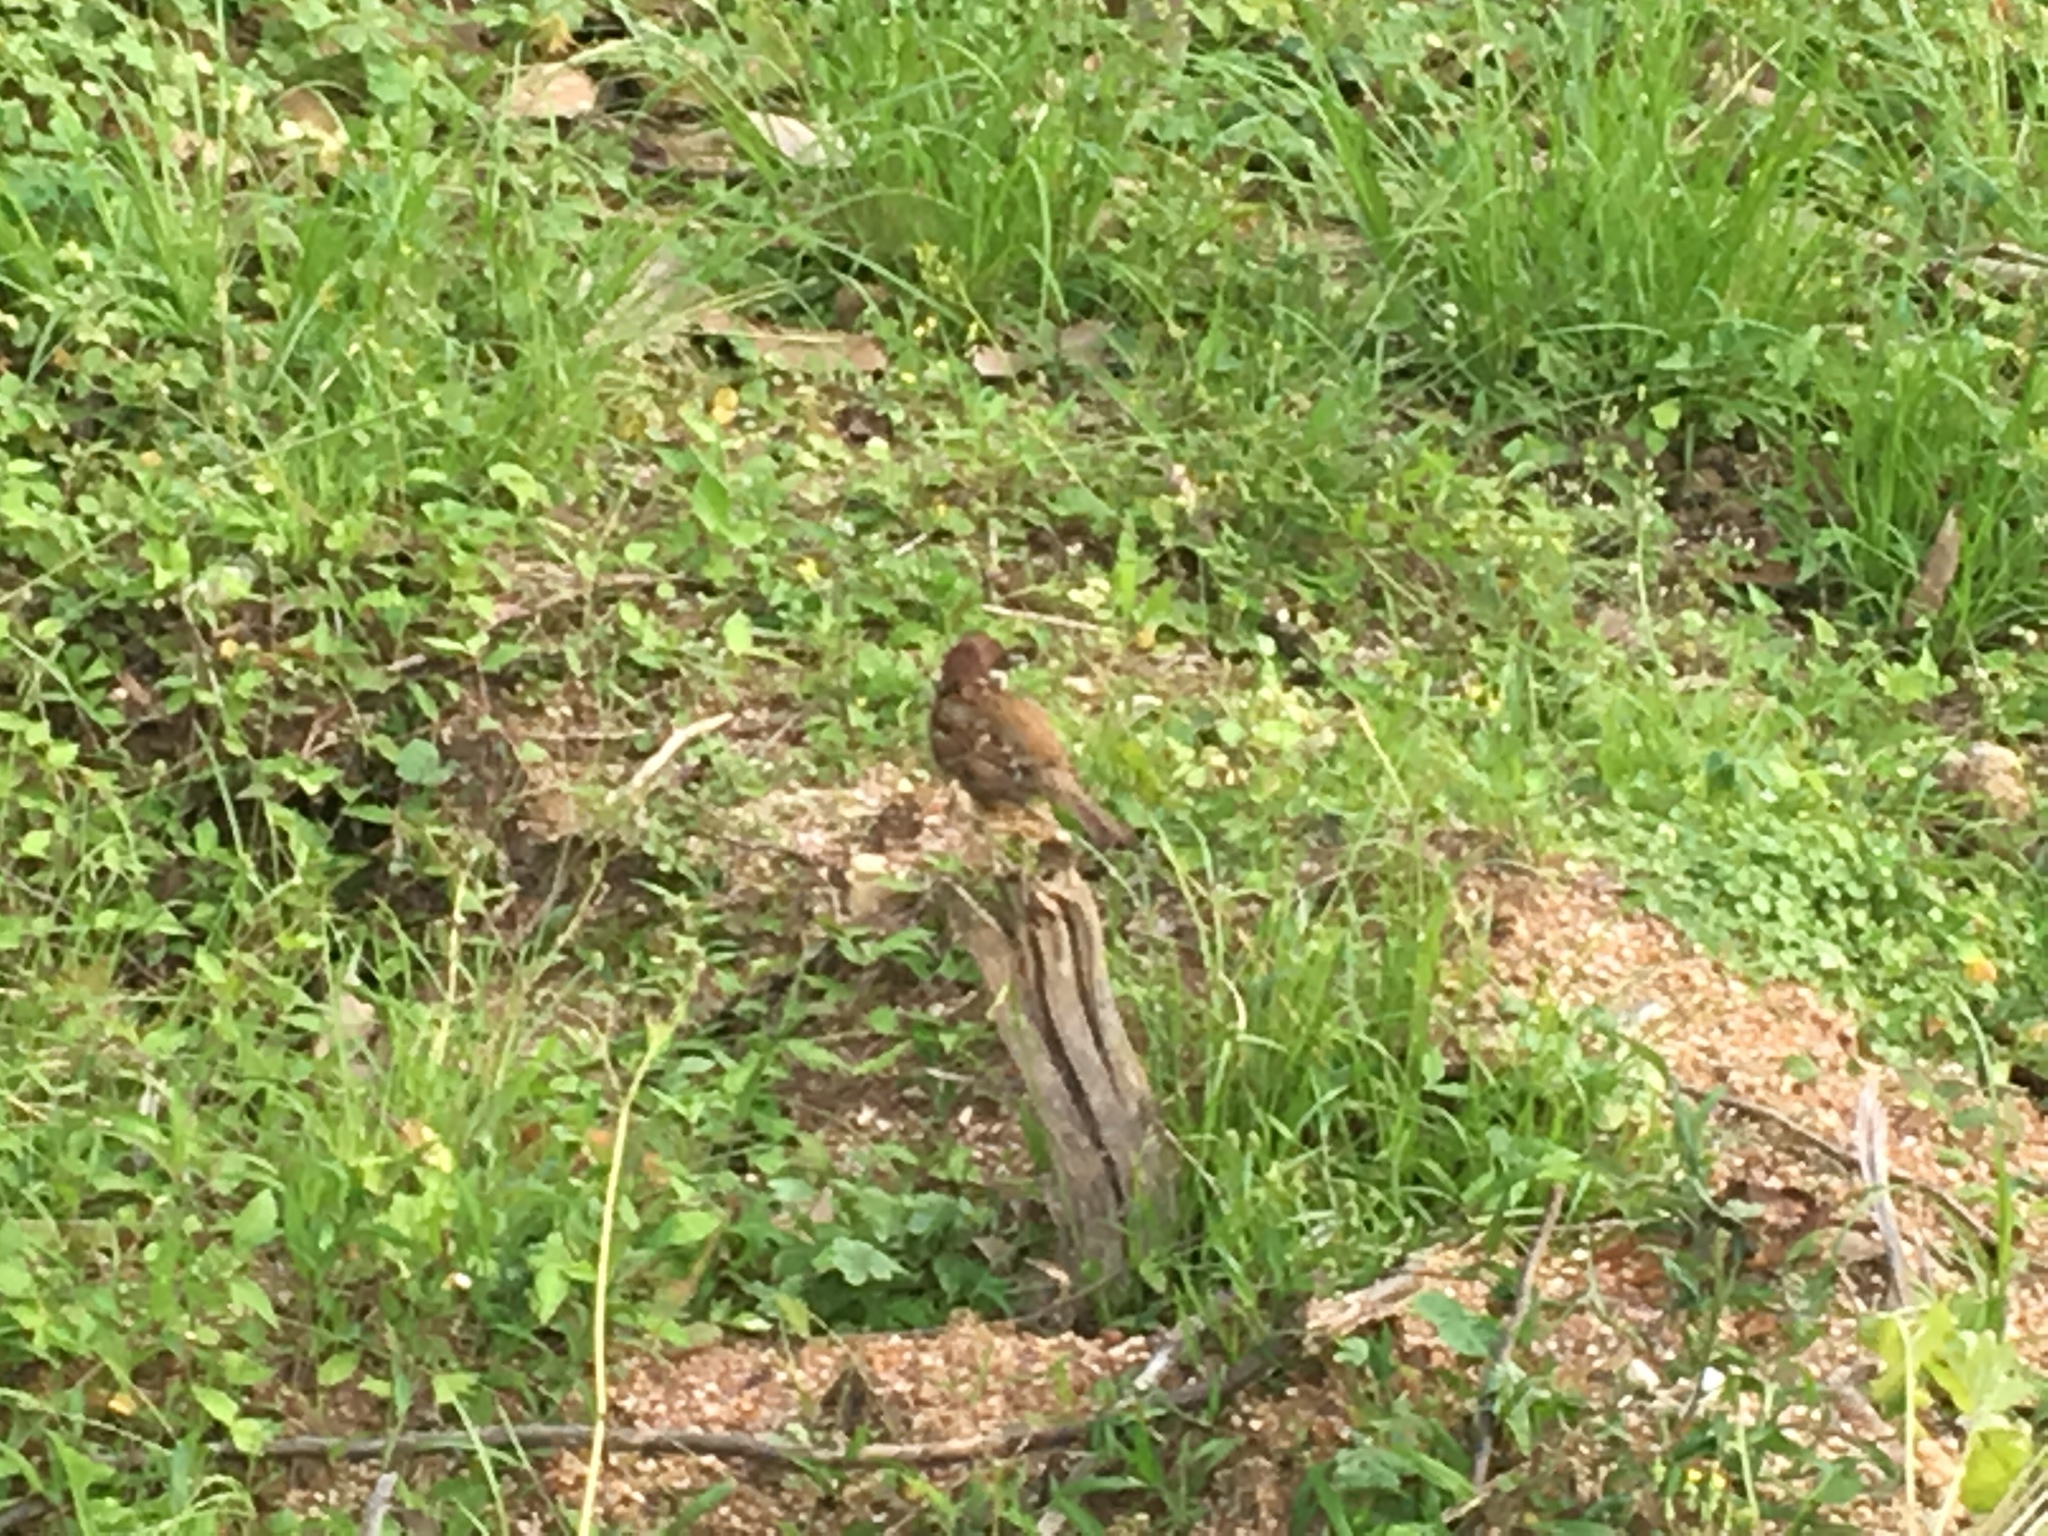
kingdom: Animalia
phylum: Chordata
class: Aves
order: Passeriformes
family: Passeridae
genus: Passer
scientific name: Passer montanus
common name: Eurasian tree sparrow
